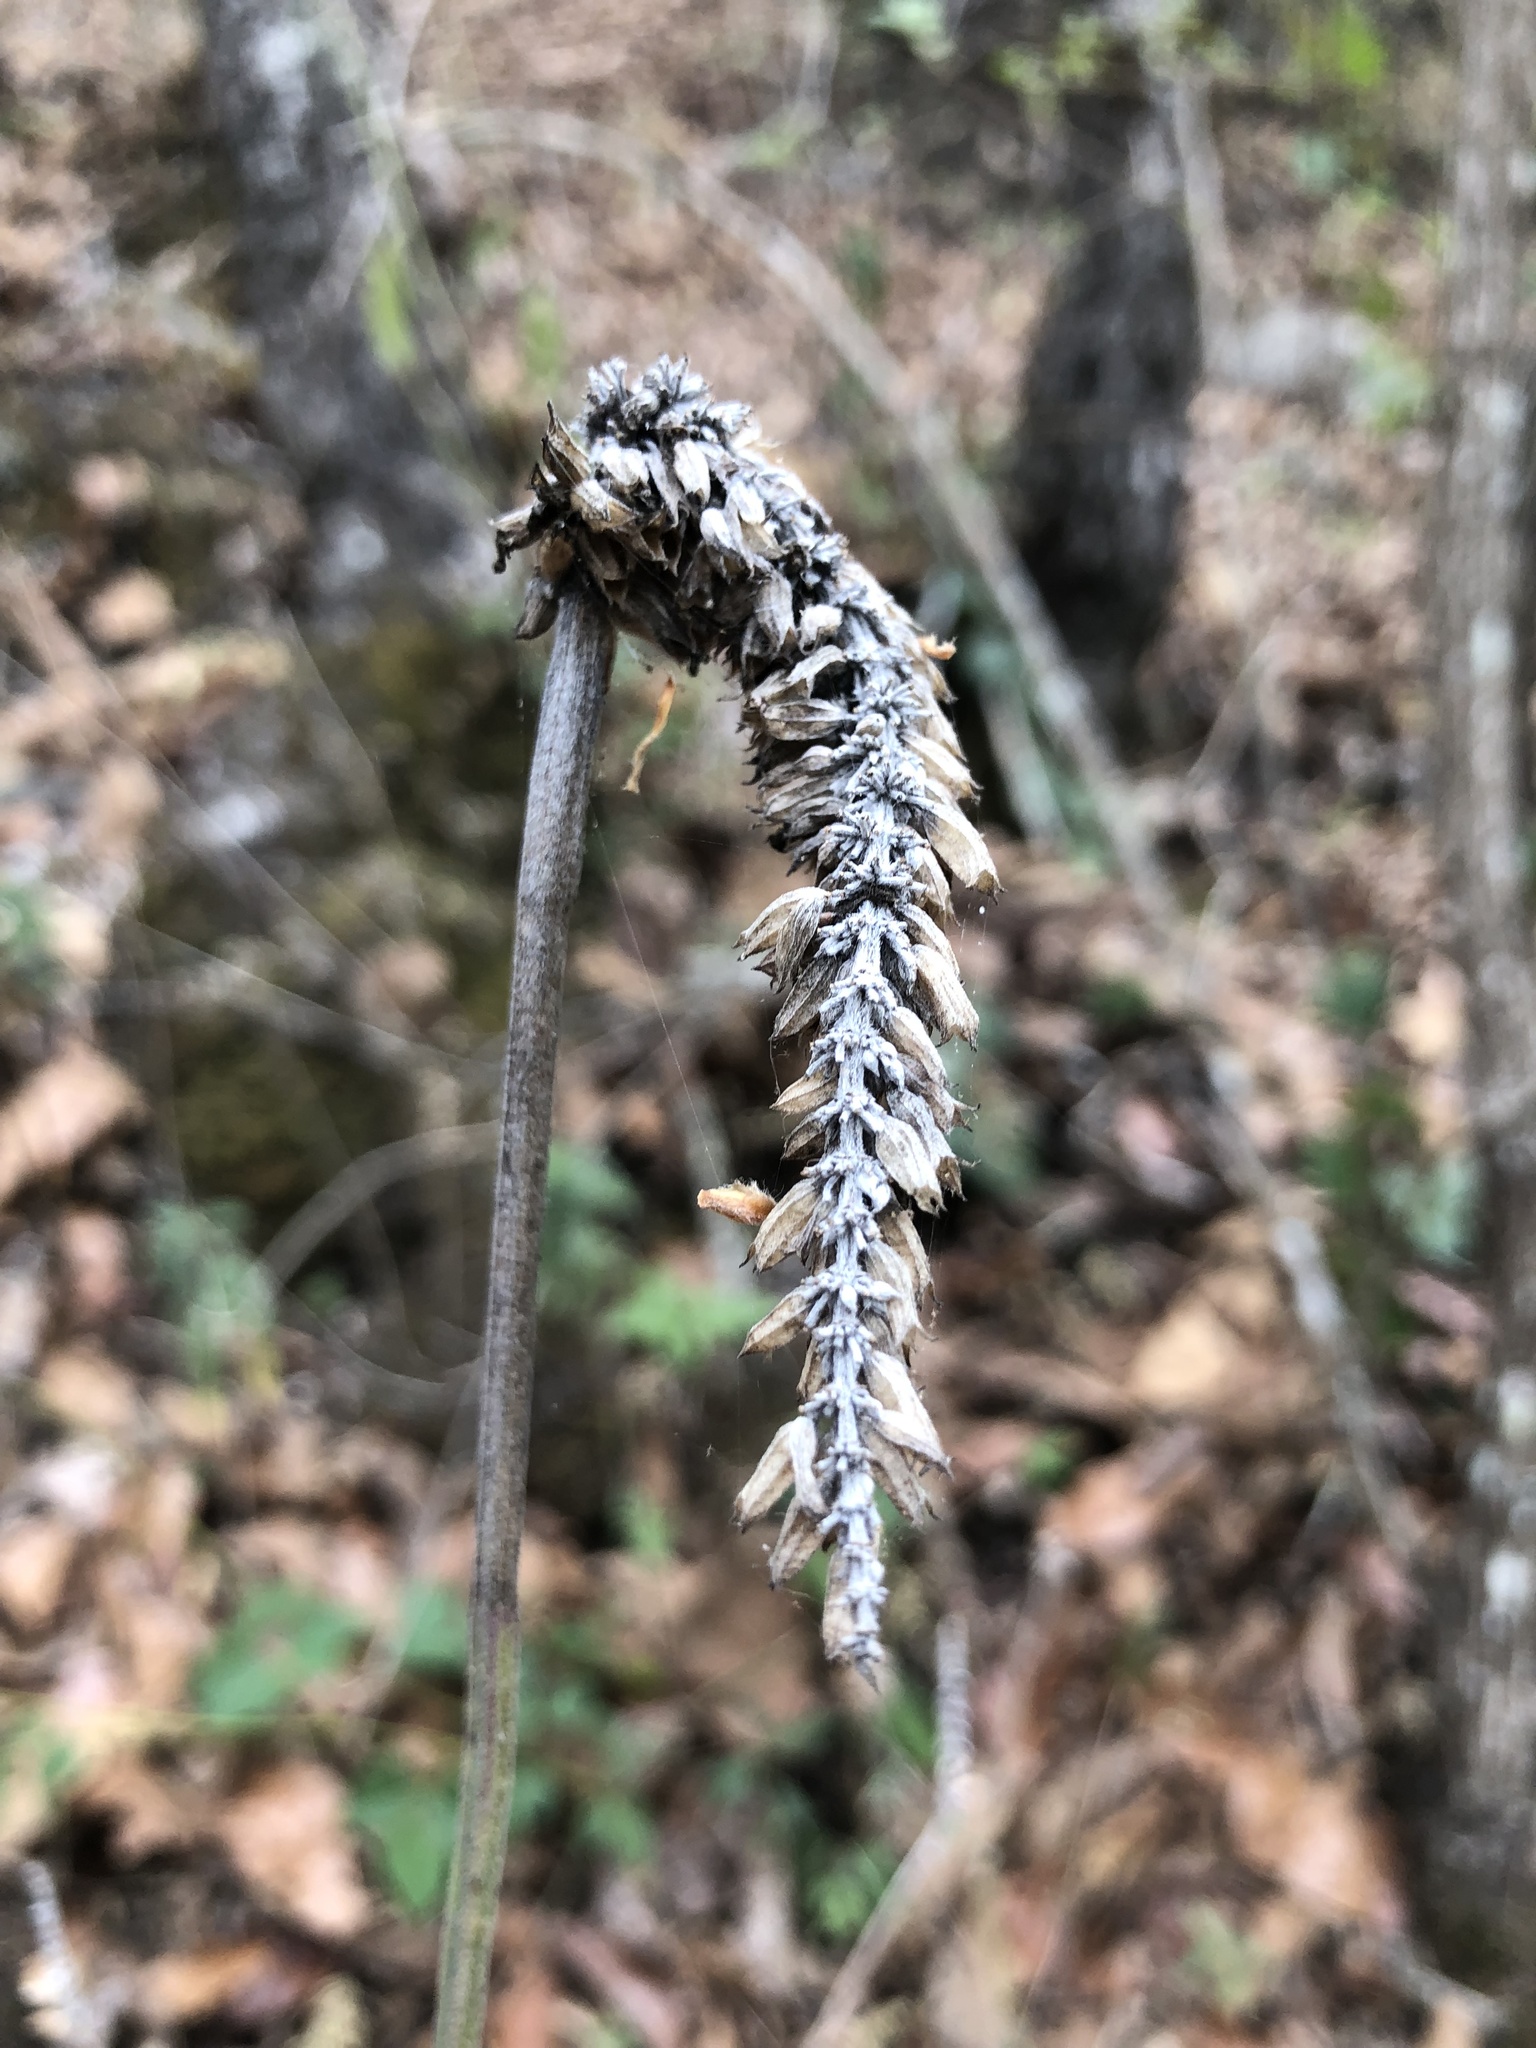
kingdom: Plantae
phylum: Tracheophyta
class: Magnoliopsida
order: Lamiales
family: Lamiaceae
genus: Salvia
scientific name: Salvia lavanduloides
